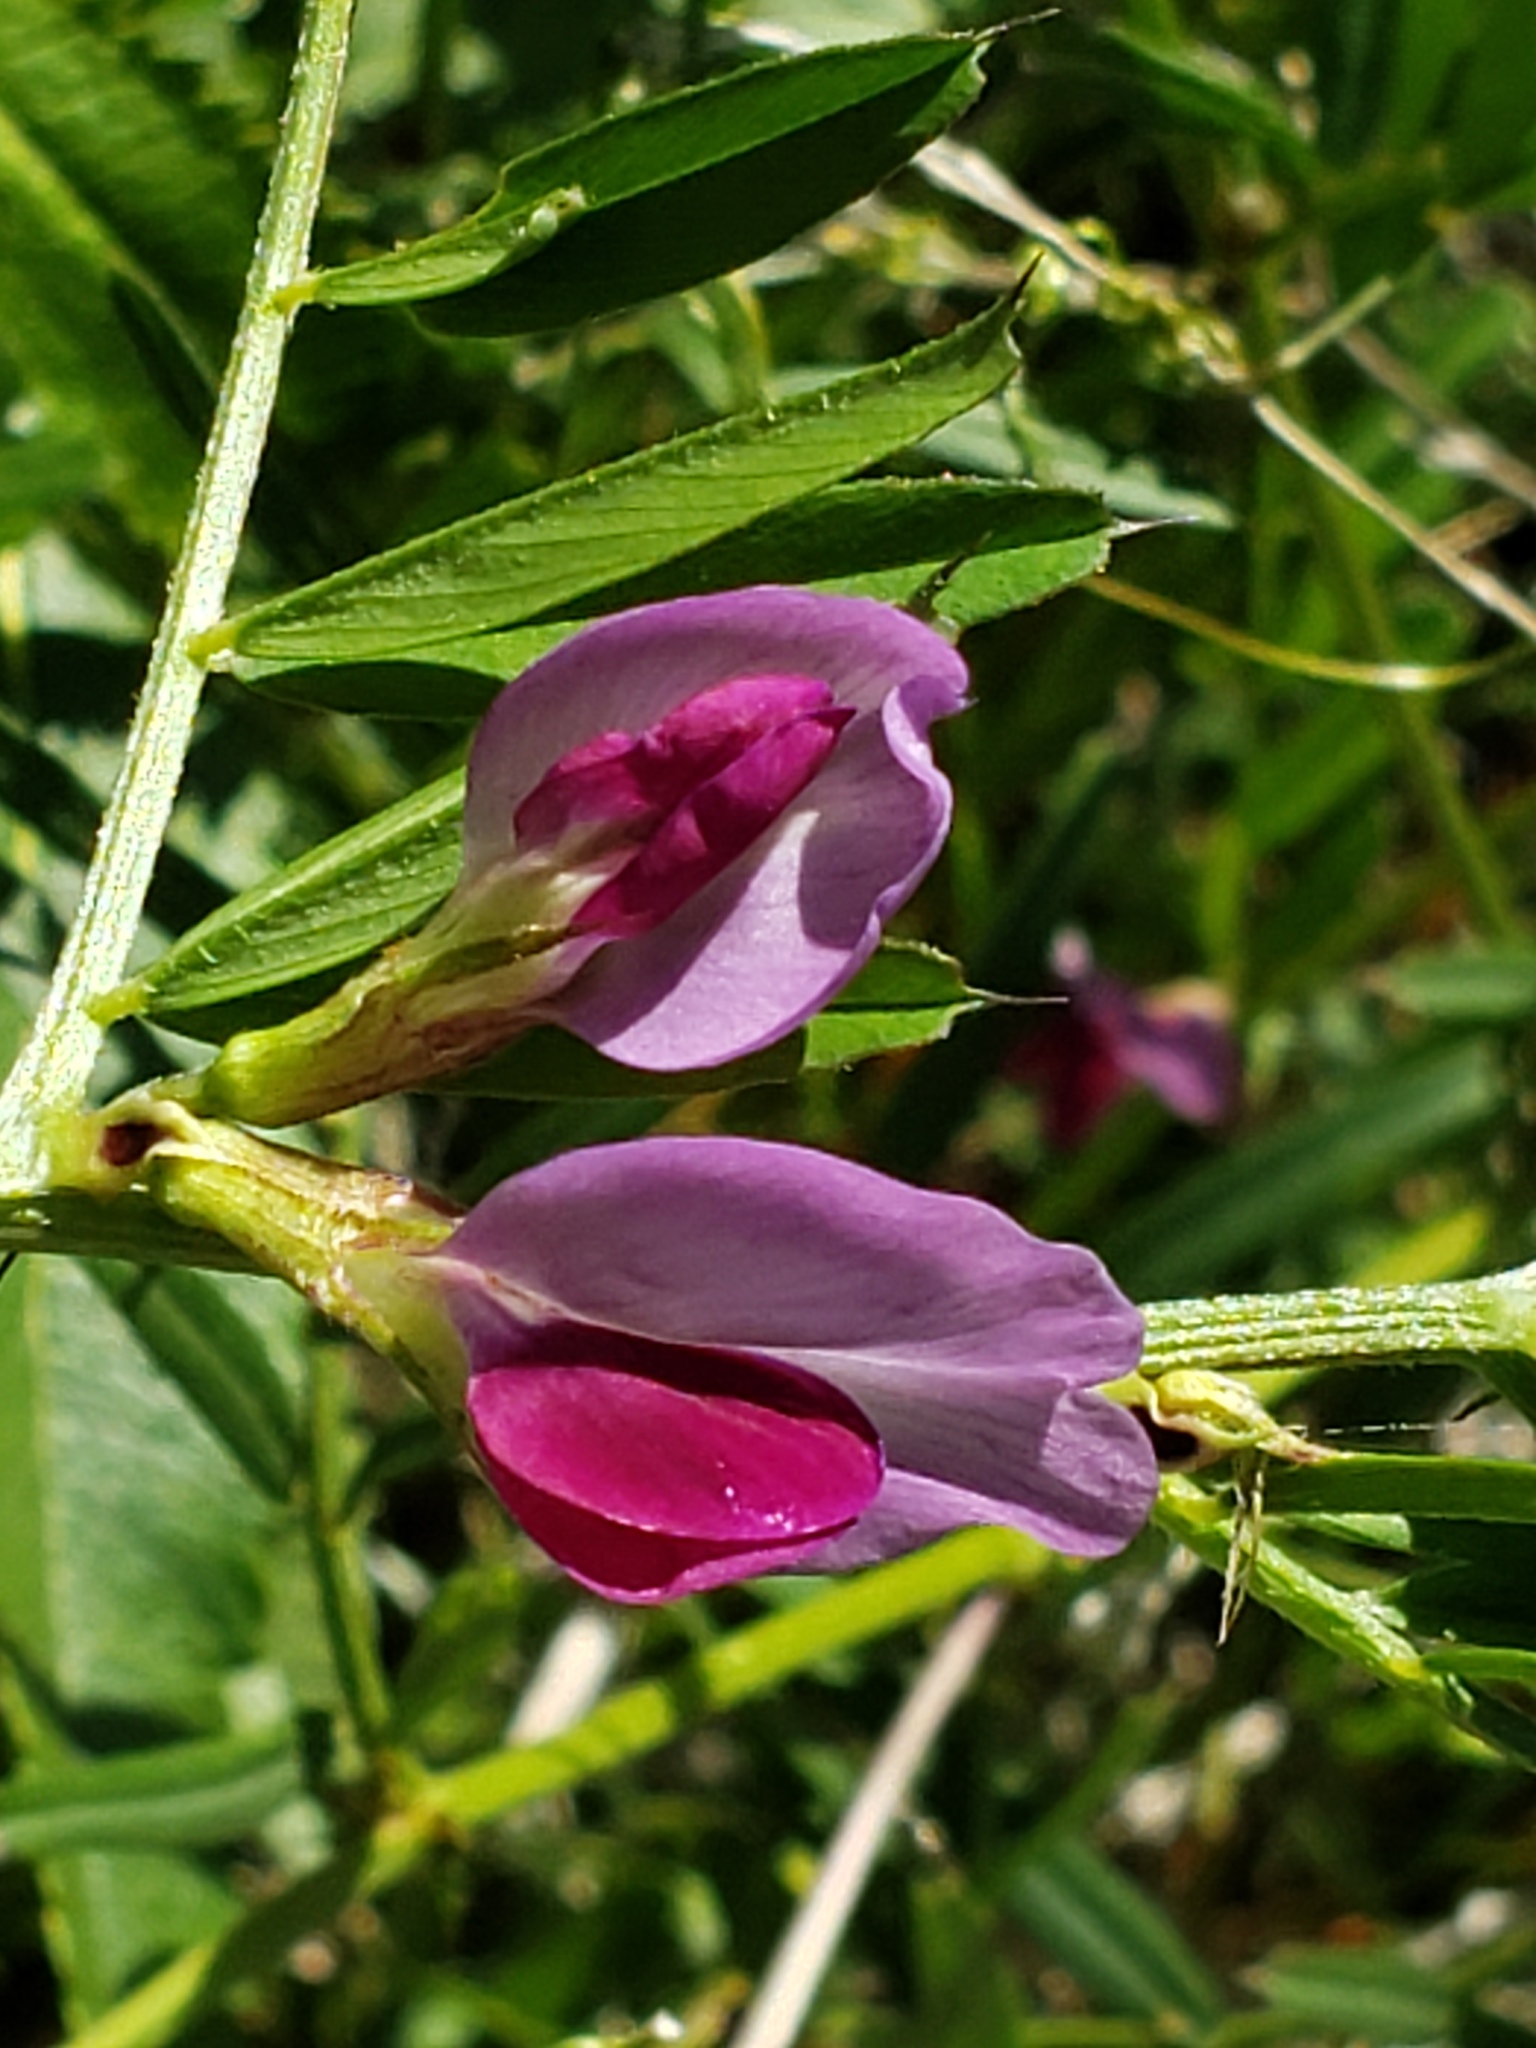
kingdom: Plantae
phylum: Tracheophyta
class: Magnoliopsida
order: Fabales
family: Fabaceae
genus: Vicia
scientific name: Vicia sativa
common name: Garden vetch
